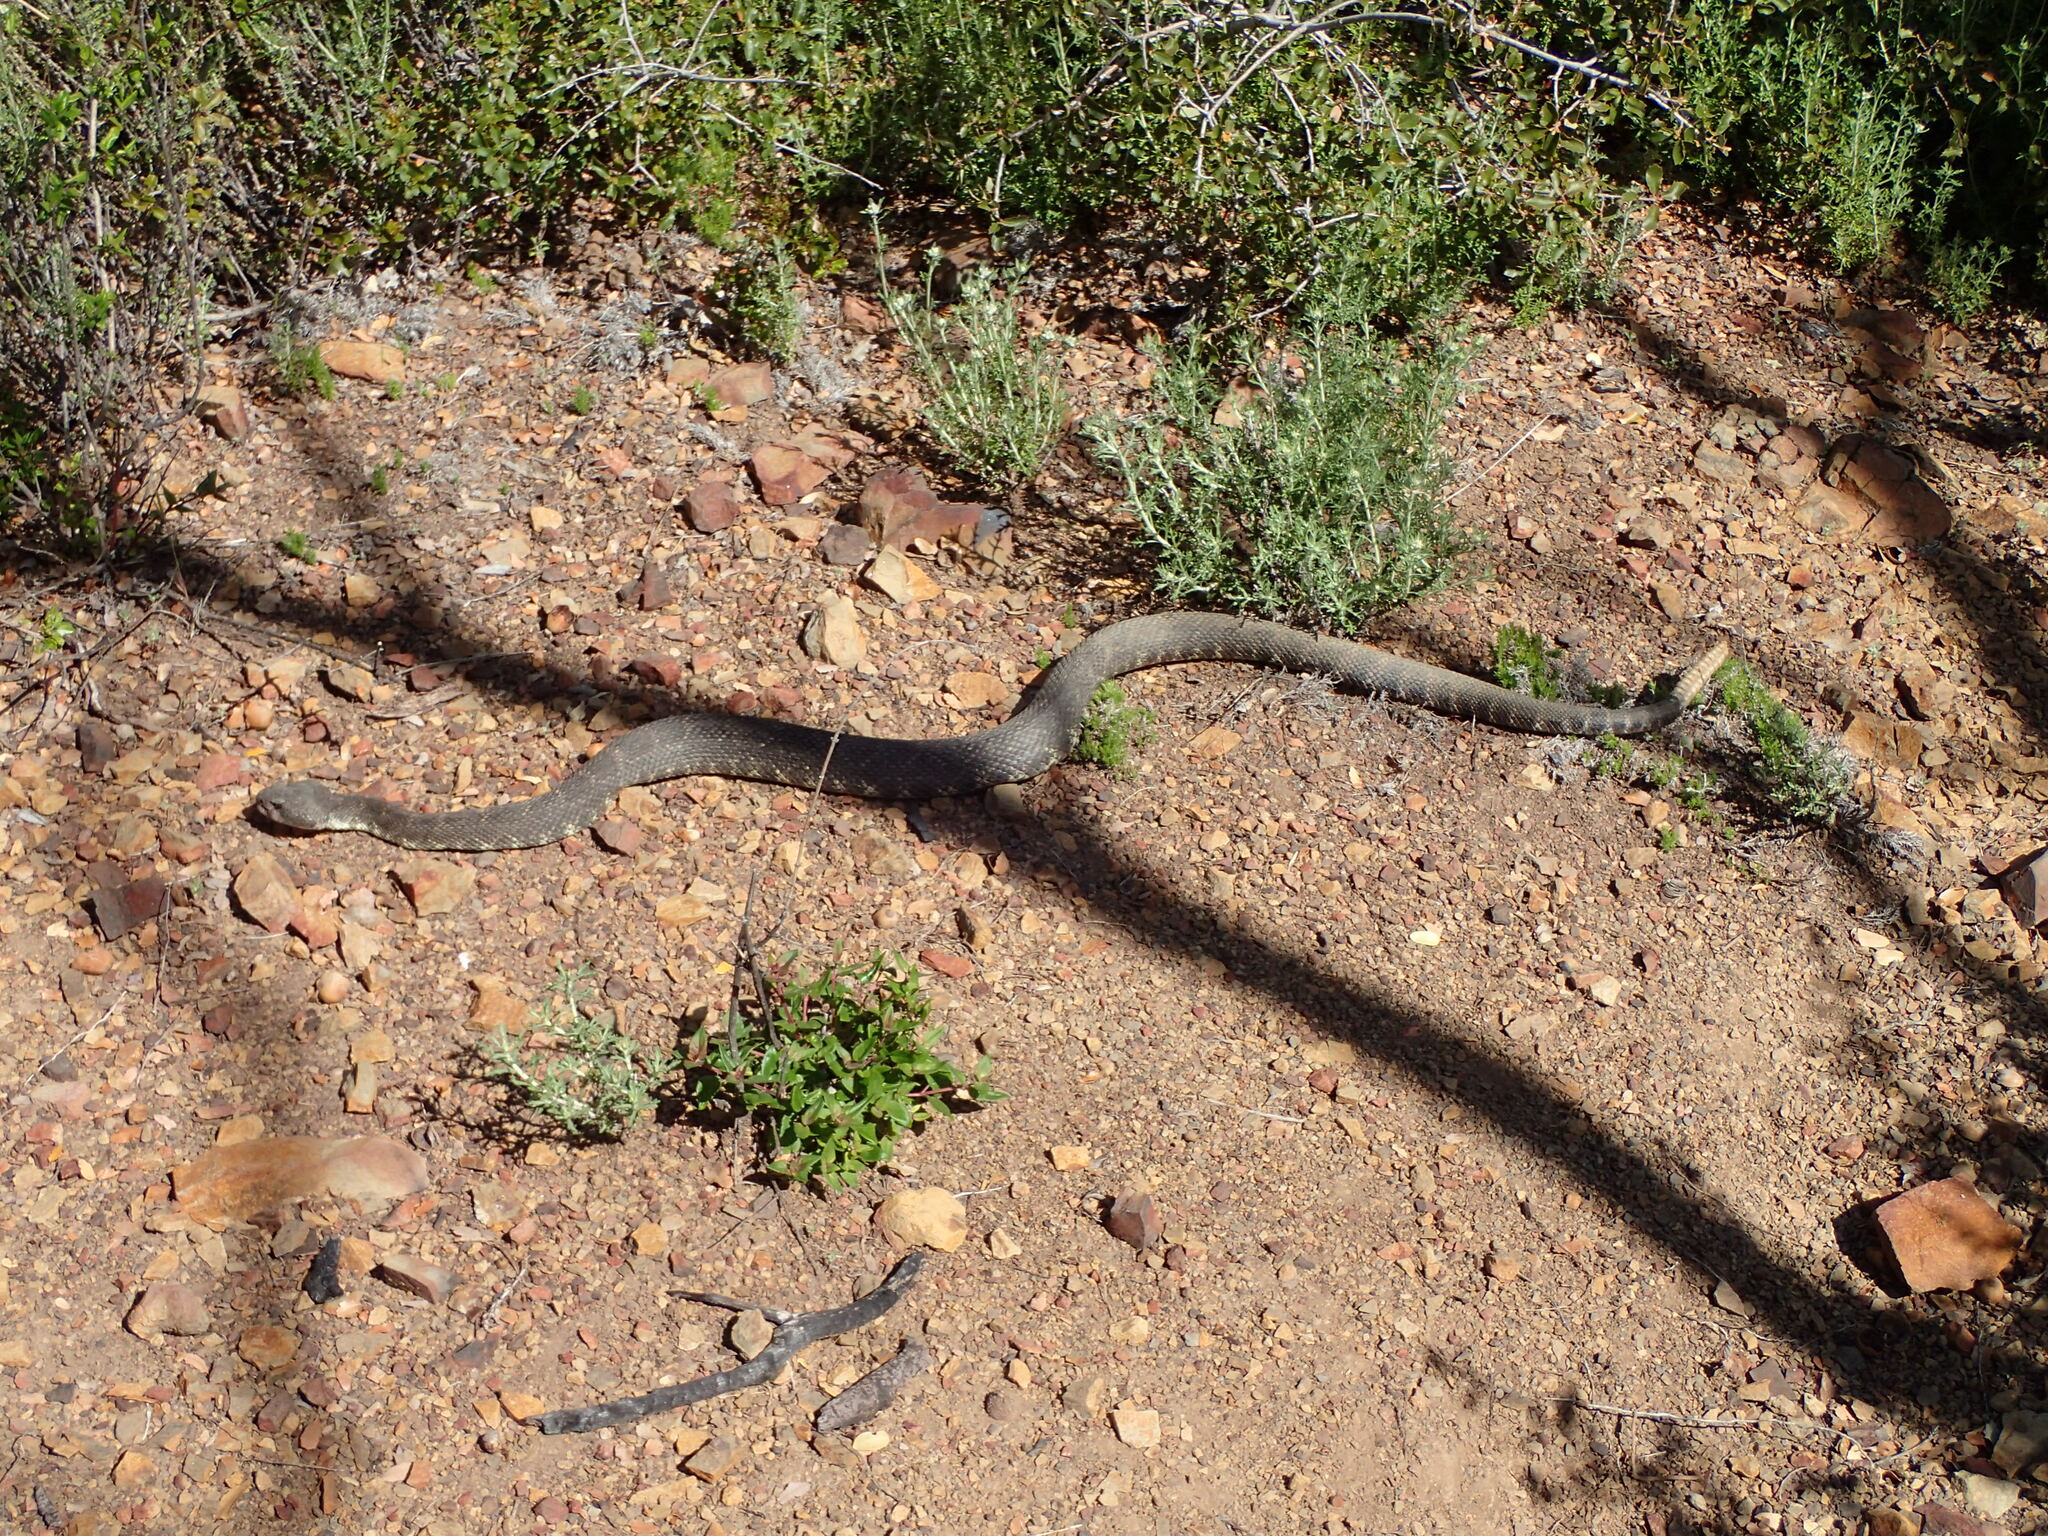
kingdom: Animalia
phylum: Chordata
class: Squamata
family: Viperidae
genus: Crotalus
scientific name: Crotalus oreganus
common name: Abyssus
